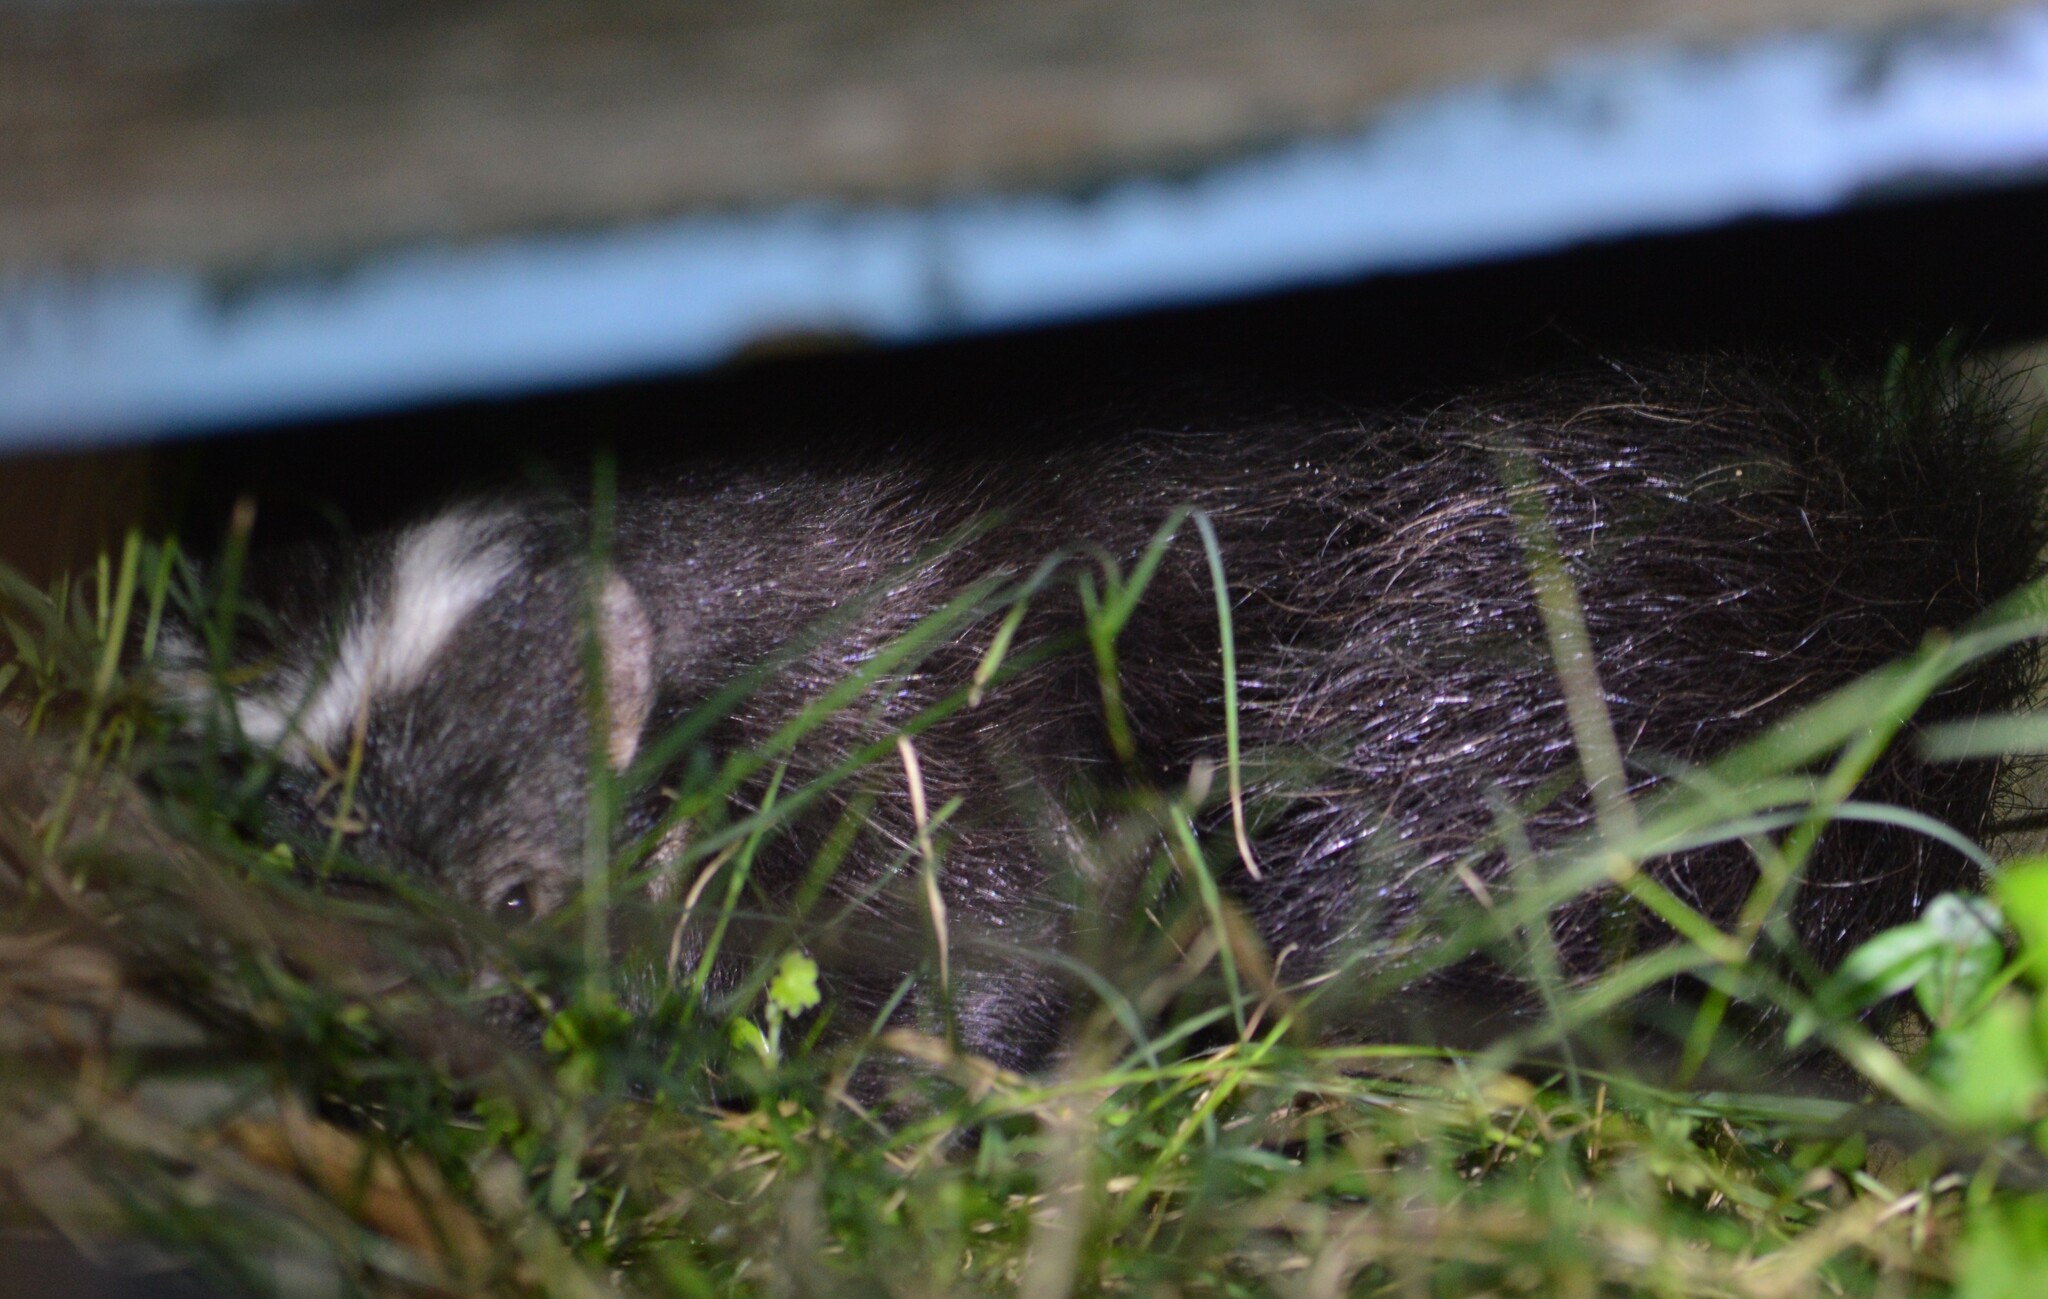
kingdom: Animalia
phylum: Chordata
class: Mammalia
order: Carnivora
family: Mephitidae
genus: Conepatus
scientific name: Conepatus chinga
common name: Molina's hog-nosed skunk
